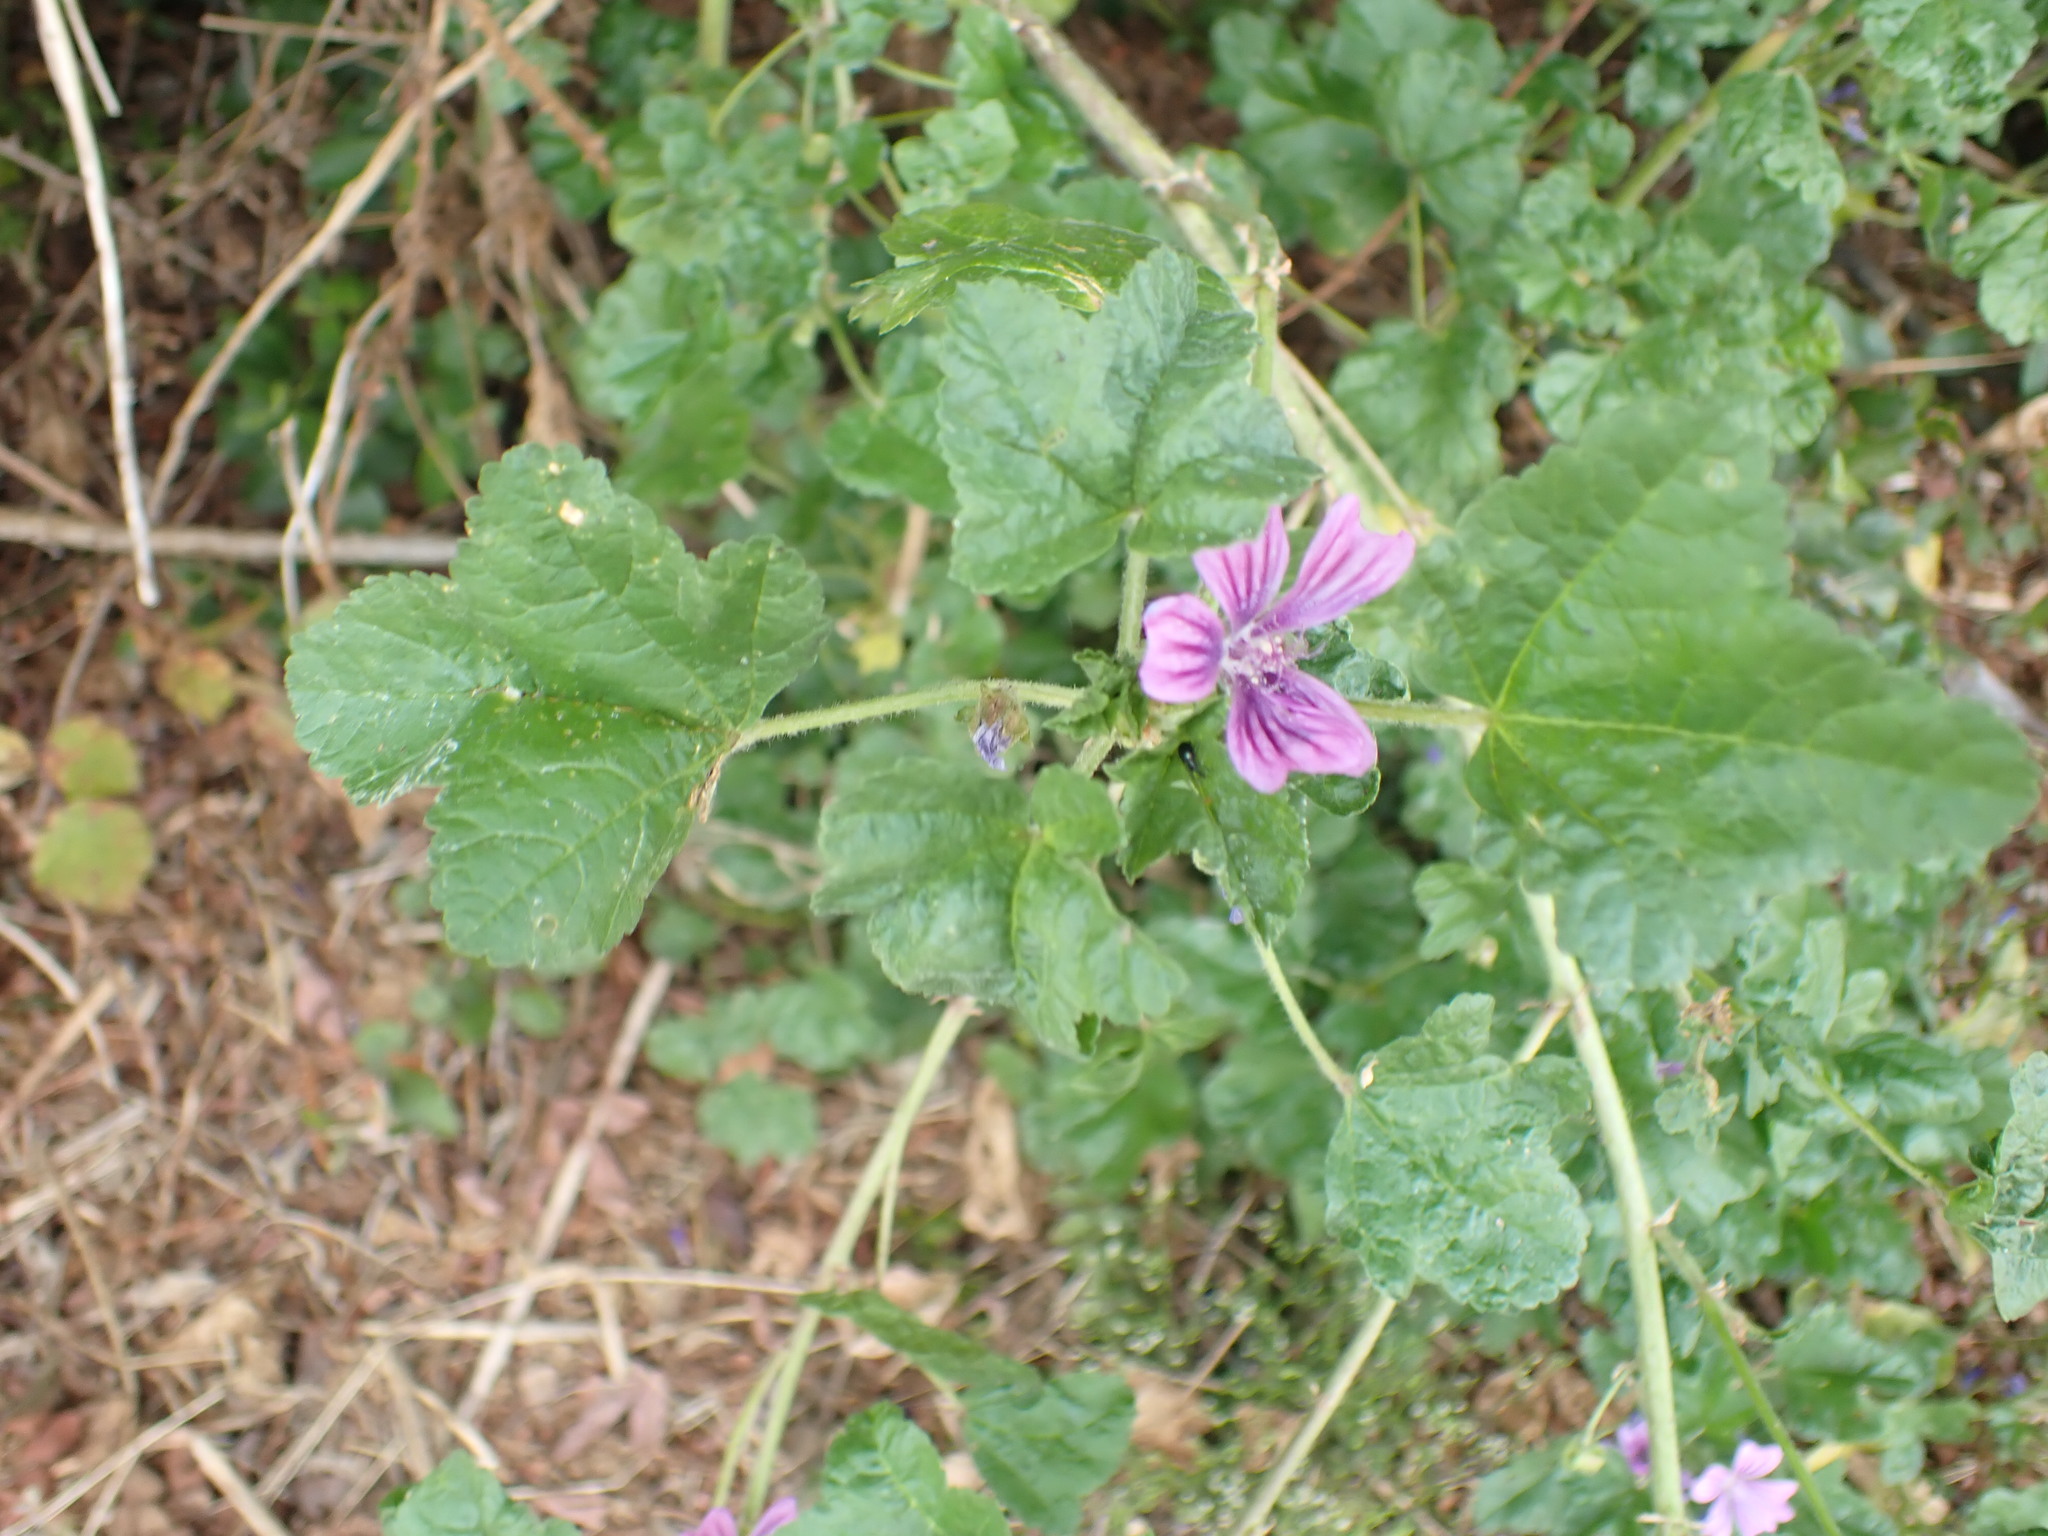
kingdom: Plantae
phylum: Tracheophyta
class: Magnoliopsida
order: Malvales
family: Malvaceae
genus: Malva
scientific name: Malva sylvestris
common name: Common mallow
